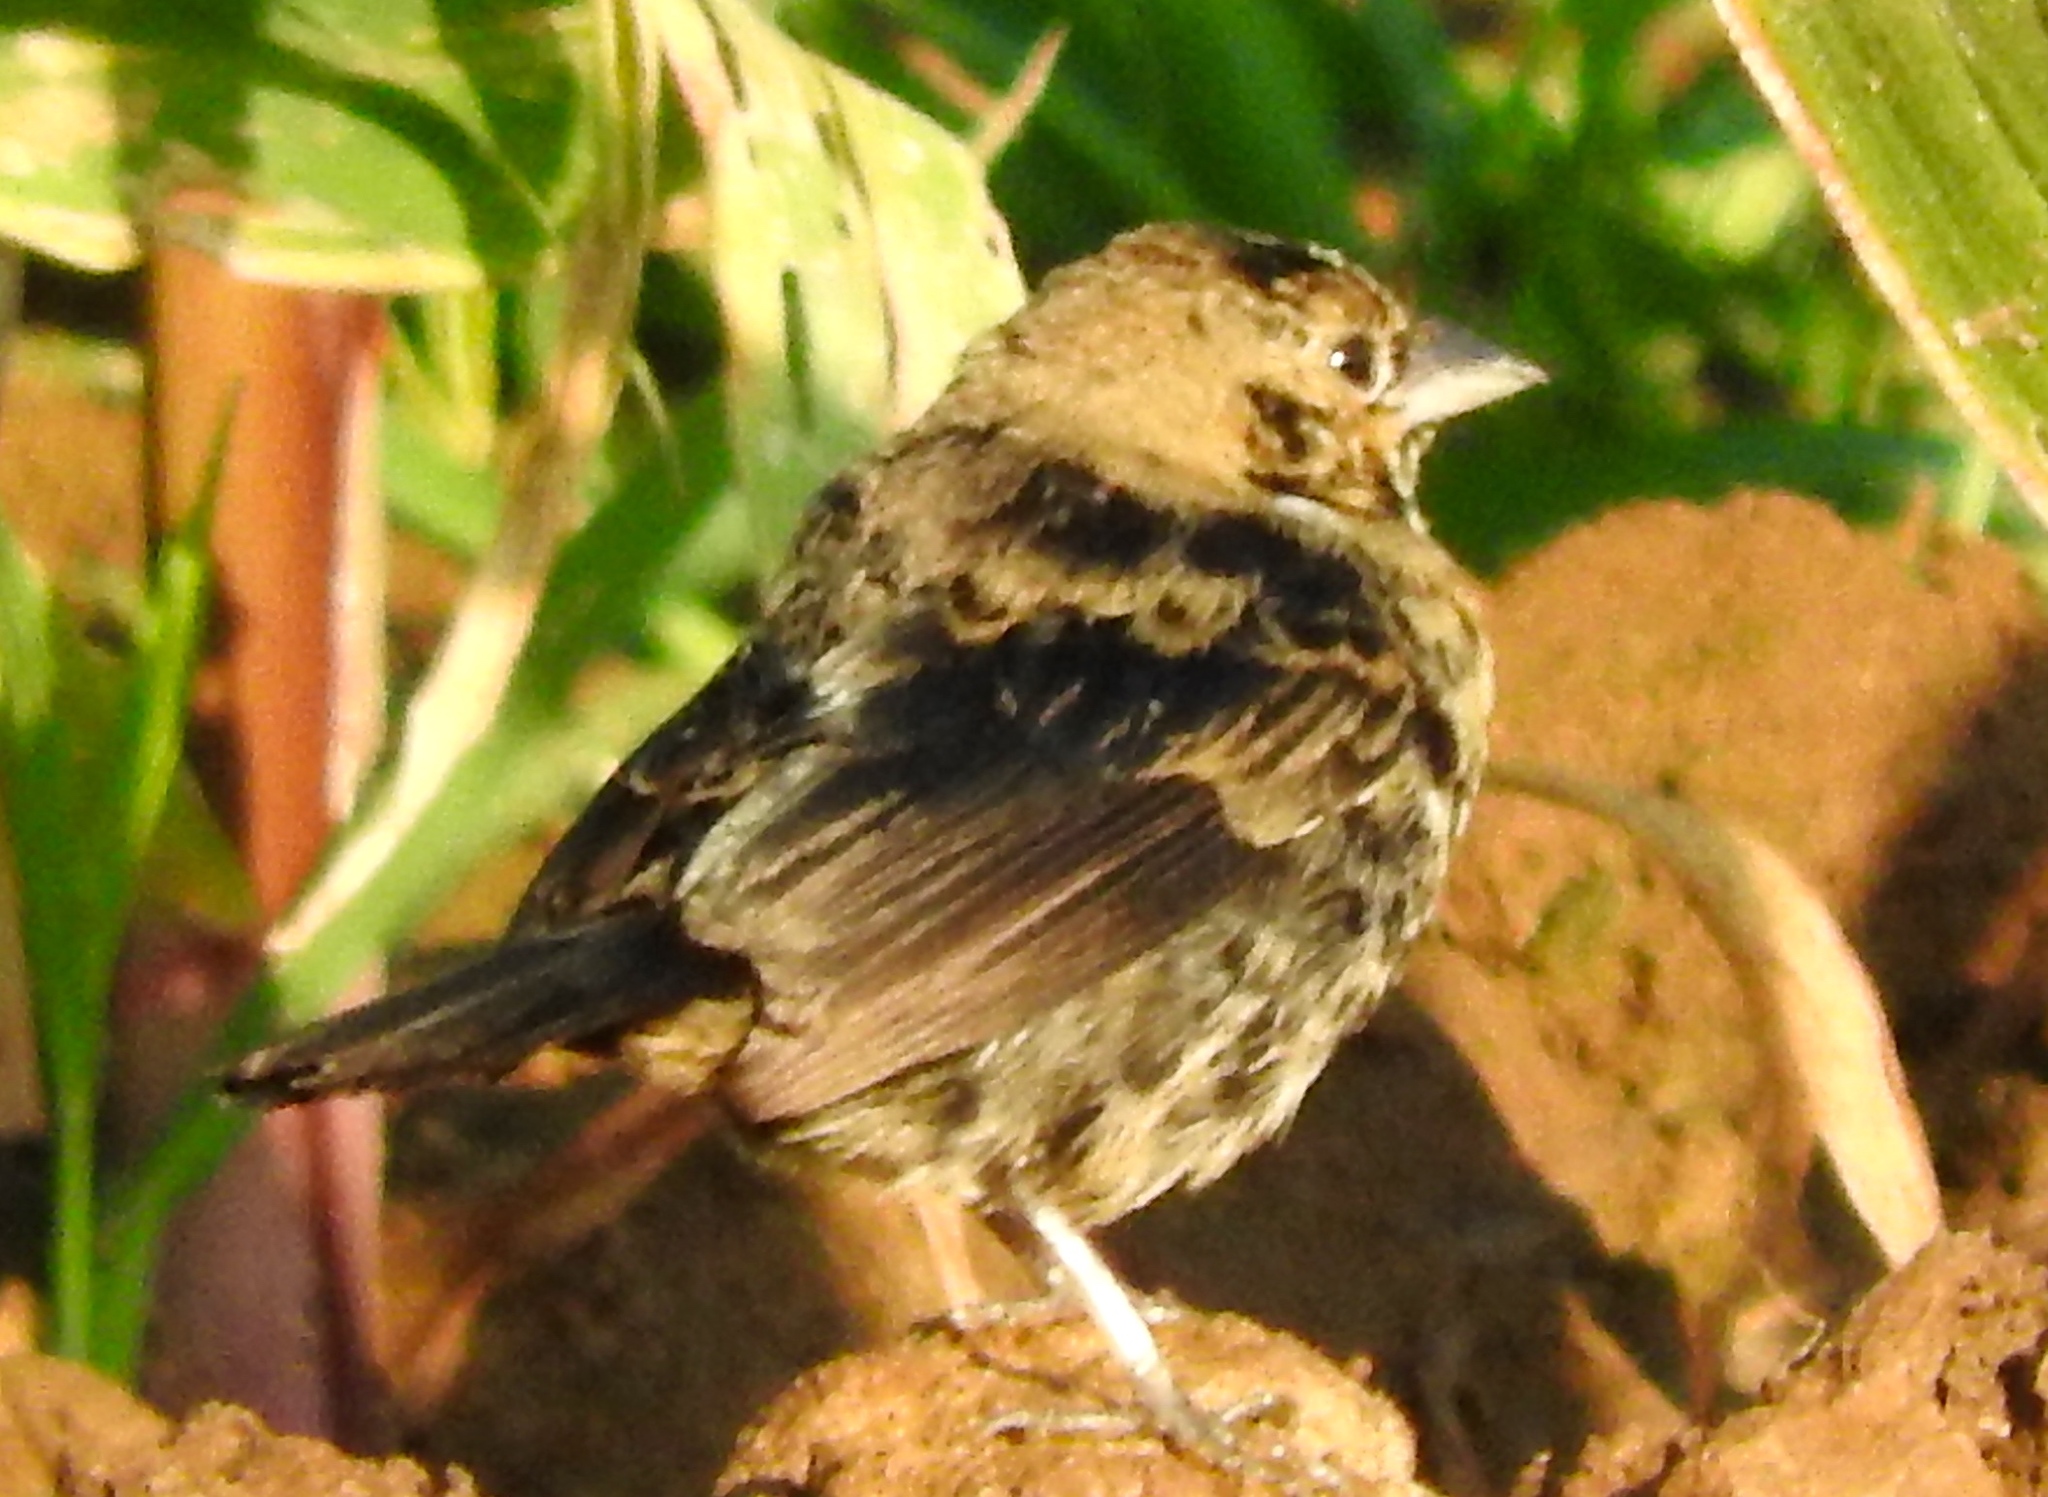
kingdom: Animalia
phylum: Chordata
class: Aves
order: Passeriformes
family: Thraupidae
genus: Volatinia
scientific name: Volatinia jacarina
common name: Blue-black grassquit
